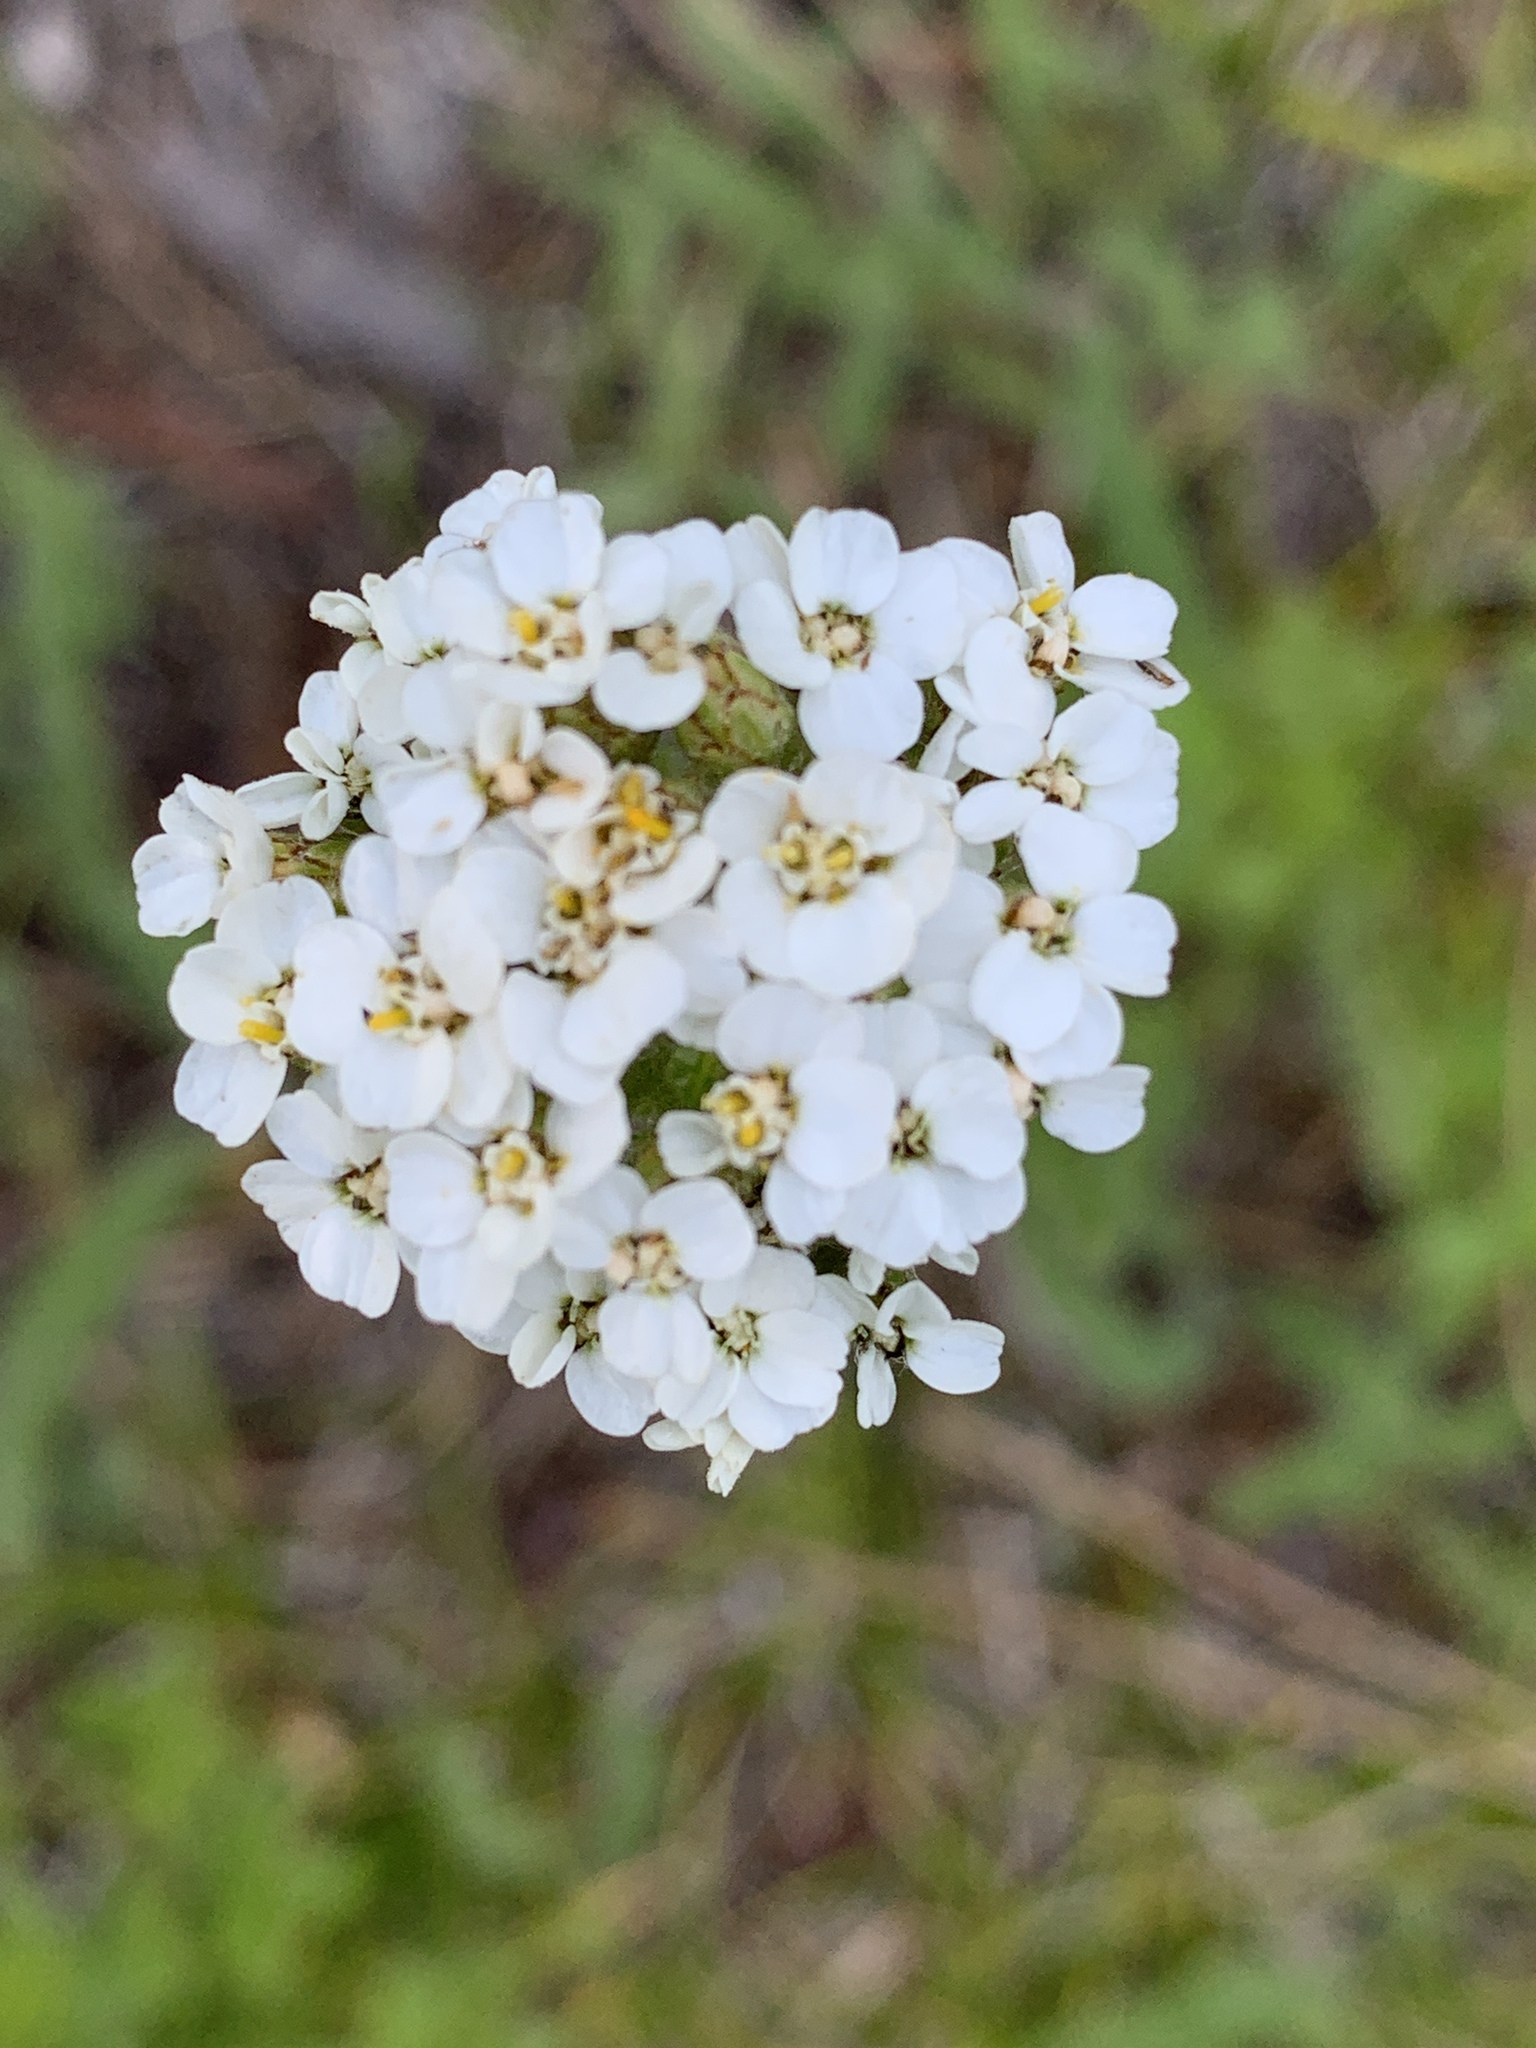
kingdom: Plantae
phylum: Tracheophyta
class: Magnoliopsida
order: Asterales
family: Asteraceae
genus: Achillea
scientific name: Achillea millefolium
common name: Yarrow
